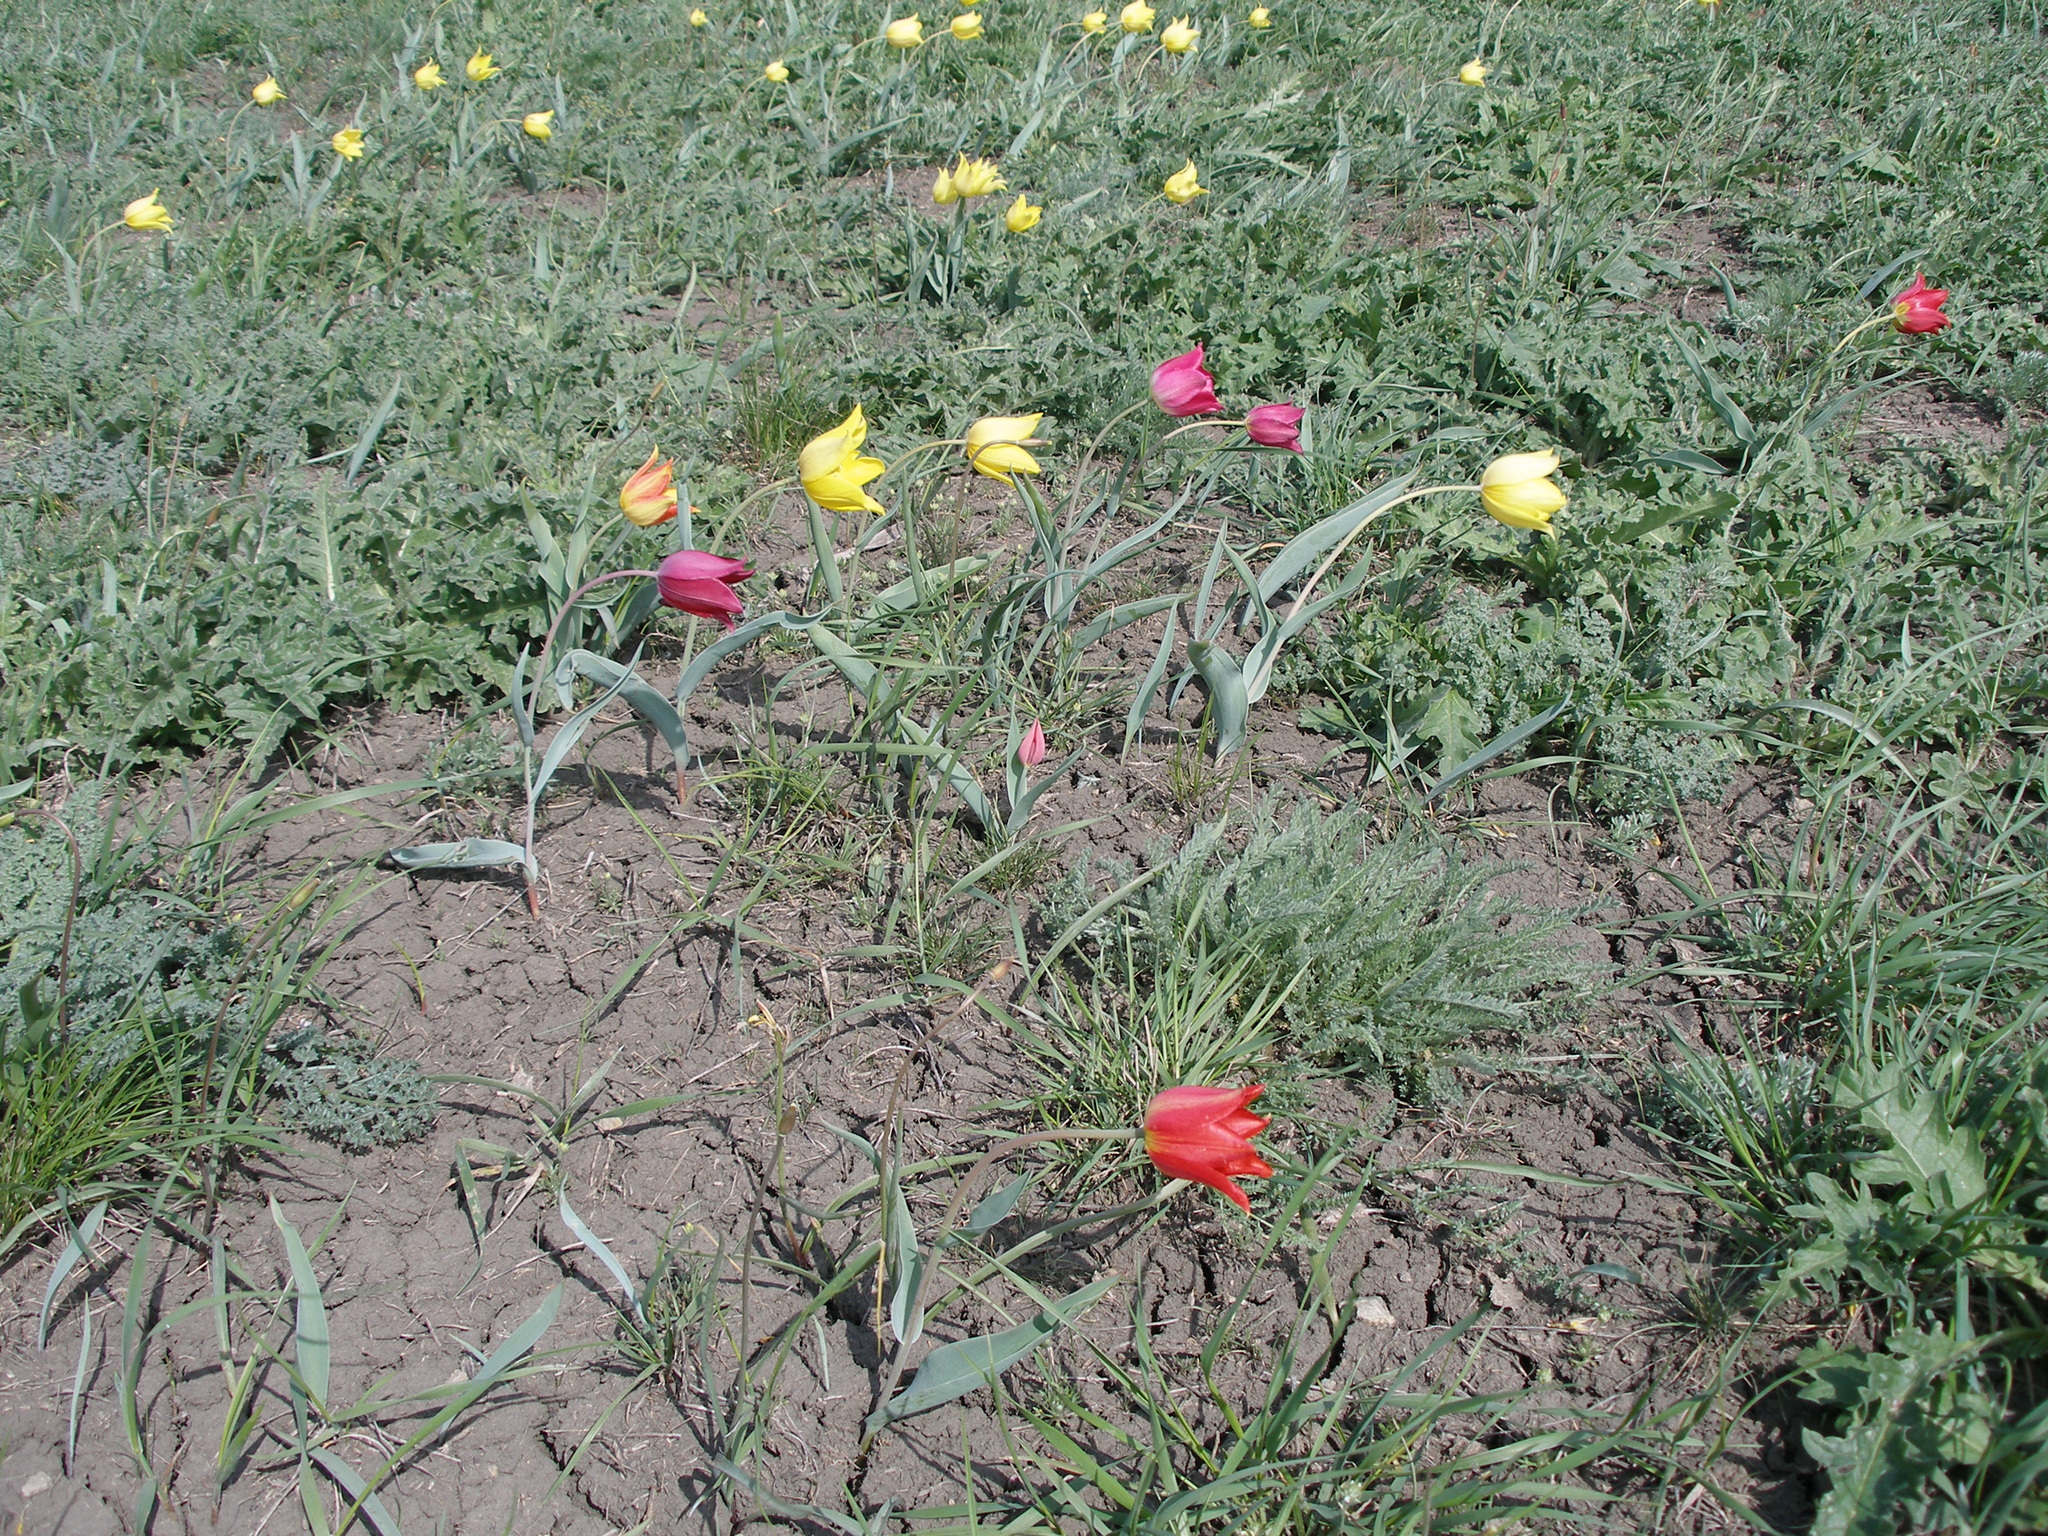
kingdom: Plantae
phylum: Tracheophyta
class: Liliopsida
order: Liliales
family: Liliaceae
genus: Tulipa
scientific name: Tulipa suaveolens
